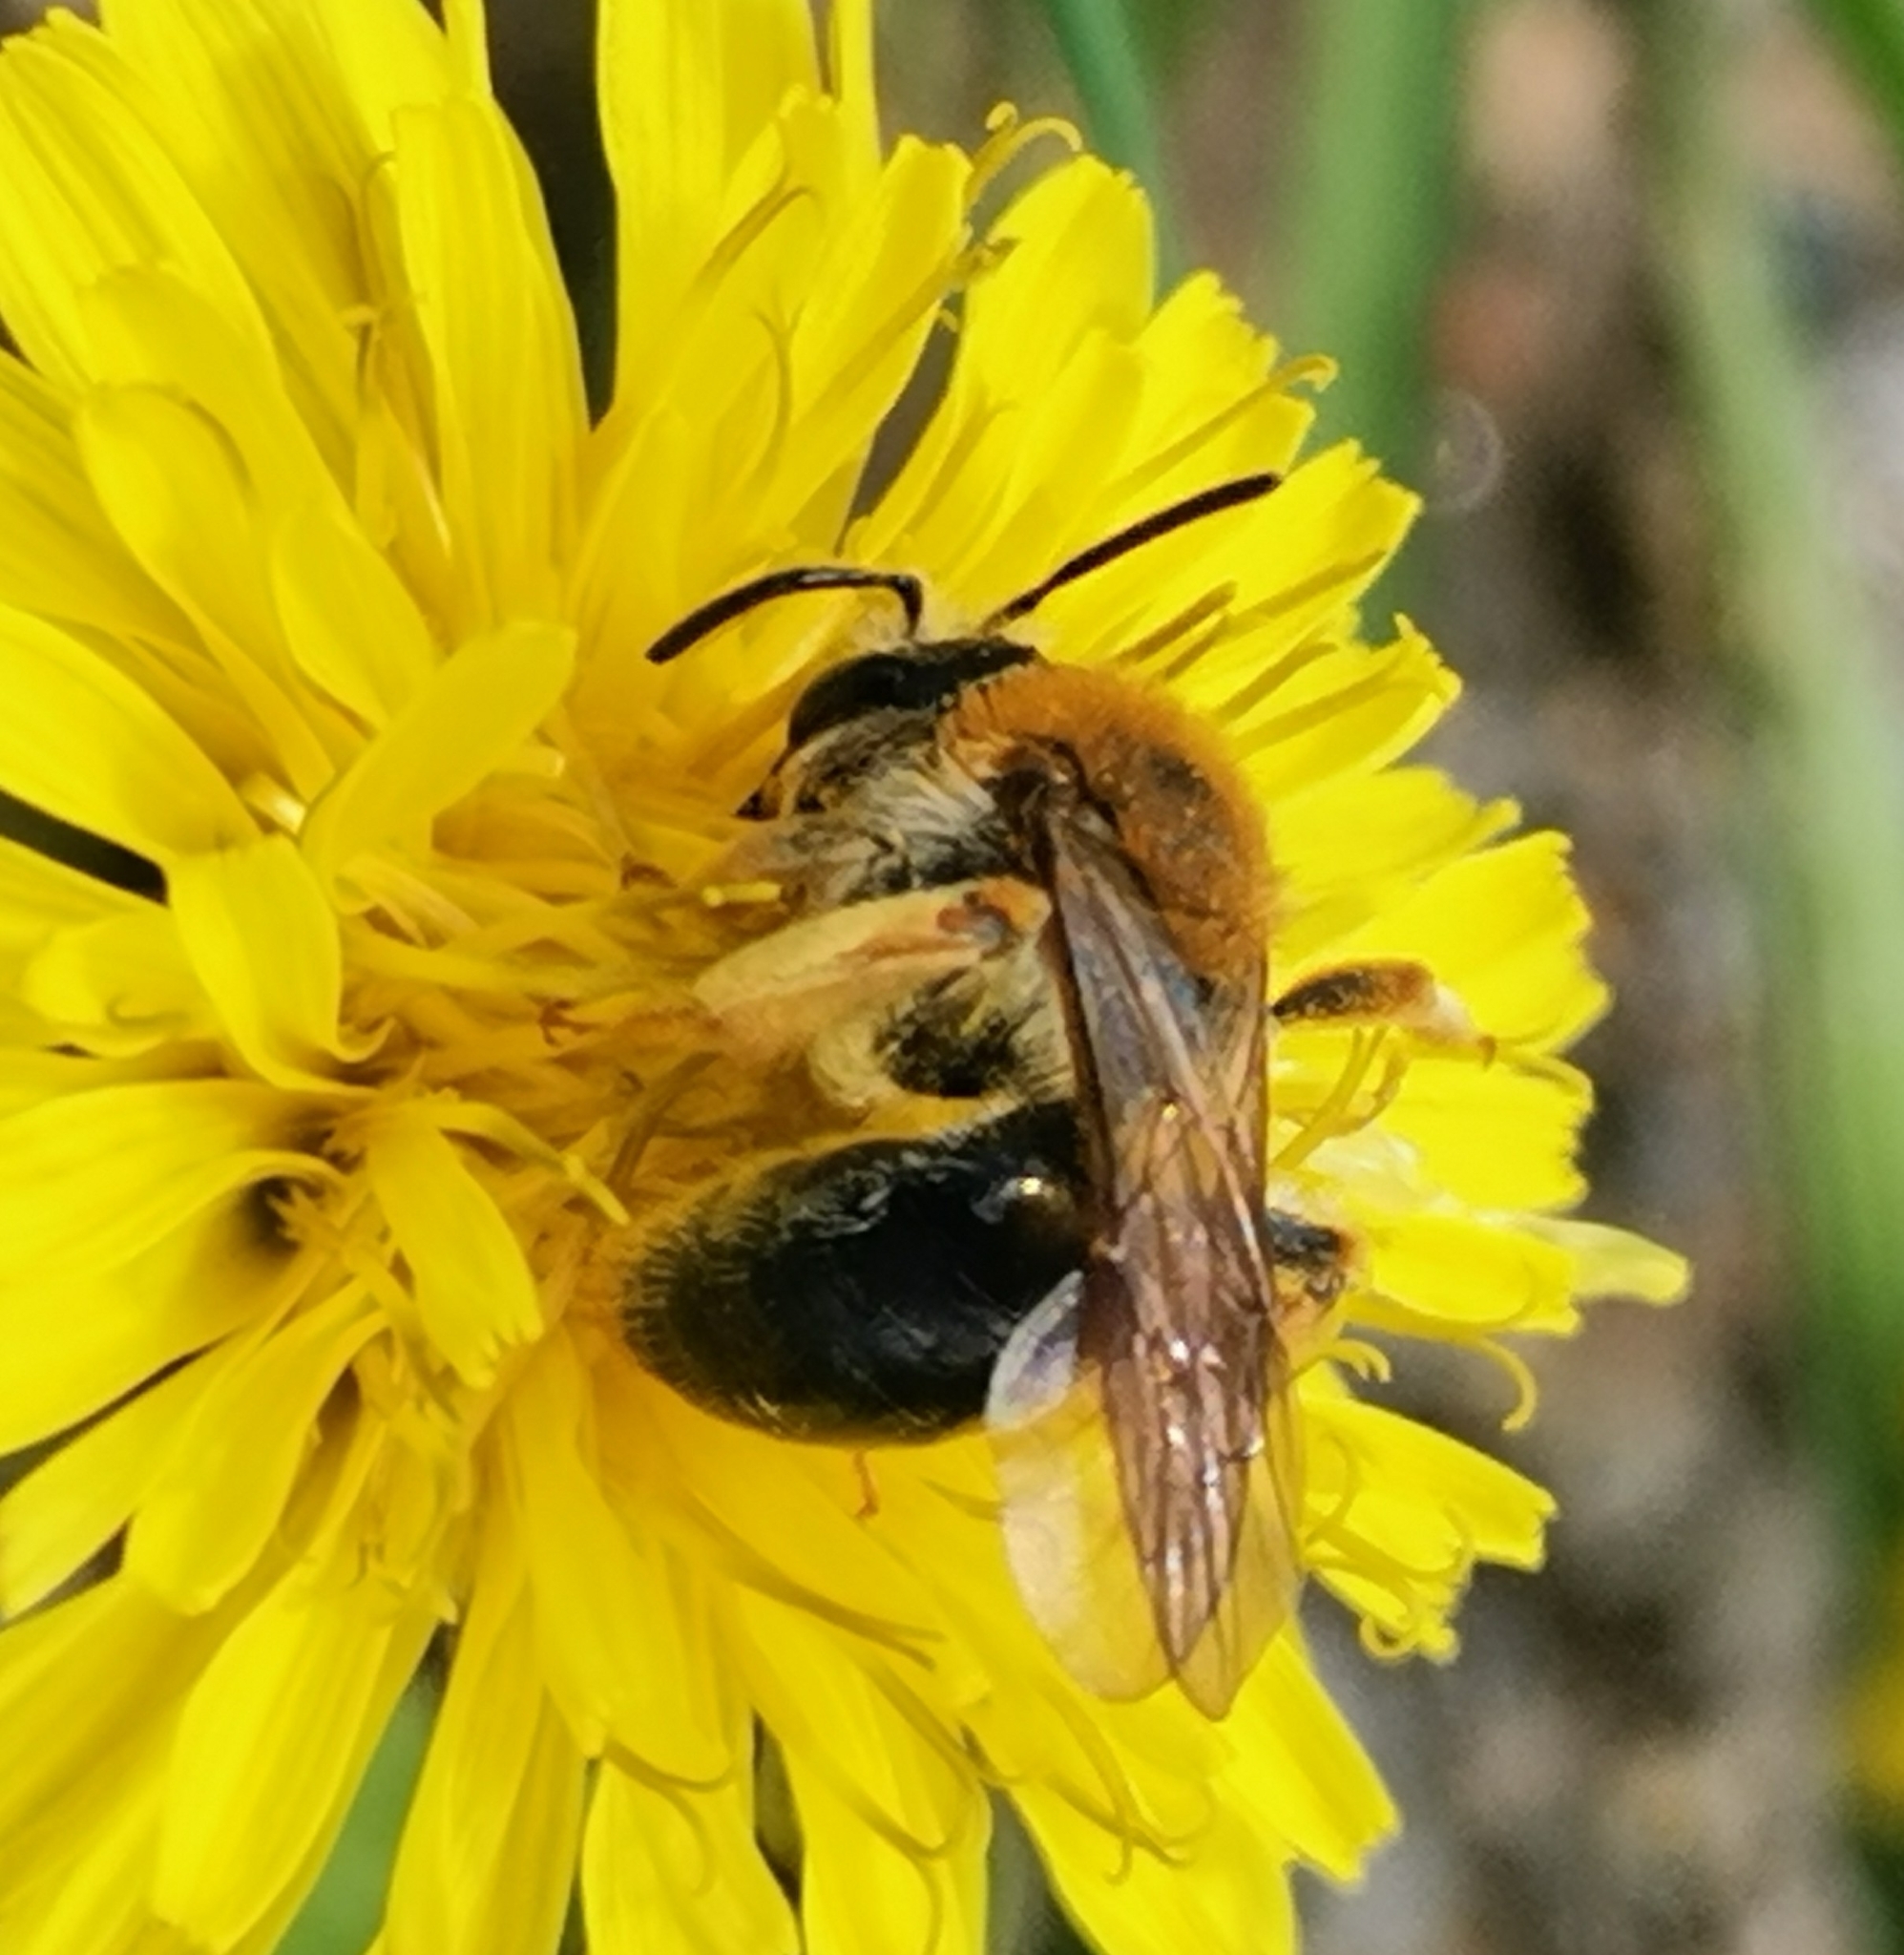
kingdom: Animalia
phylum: Arthropoda
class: Insecta
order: Hymenoptera
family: Andrenidae
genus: Andrena
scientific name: Andrena haemorrhoa
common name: Early mining bee
